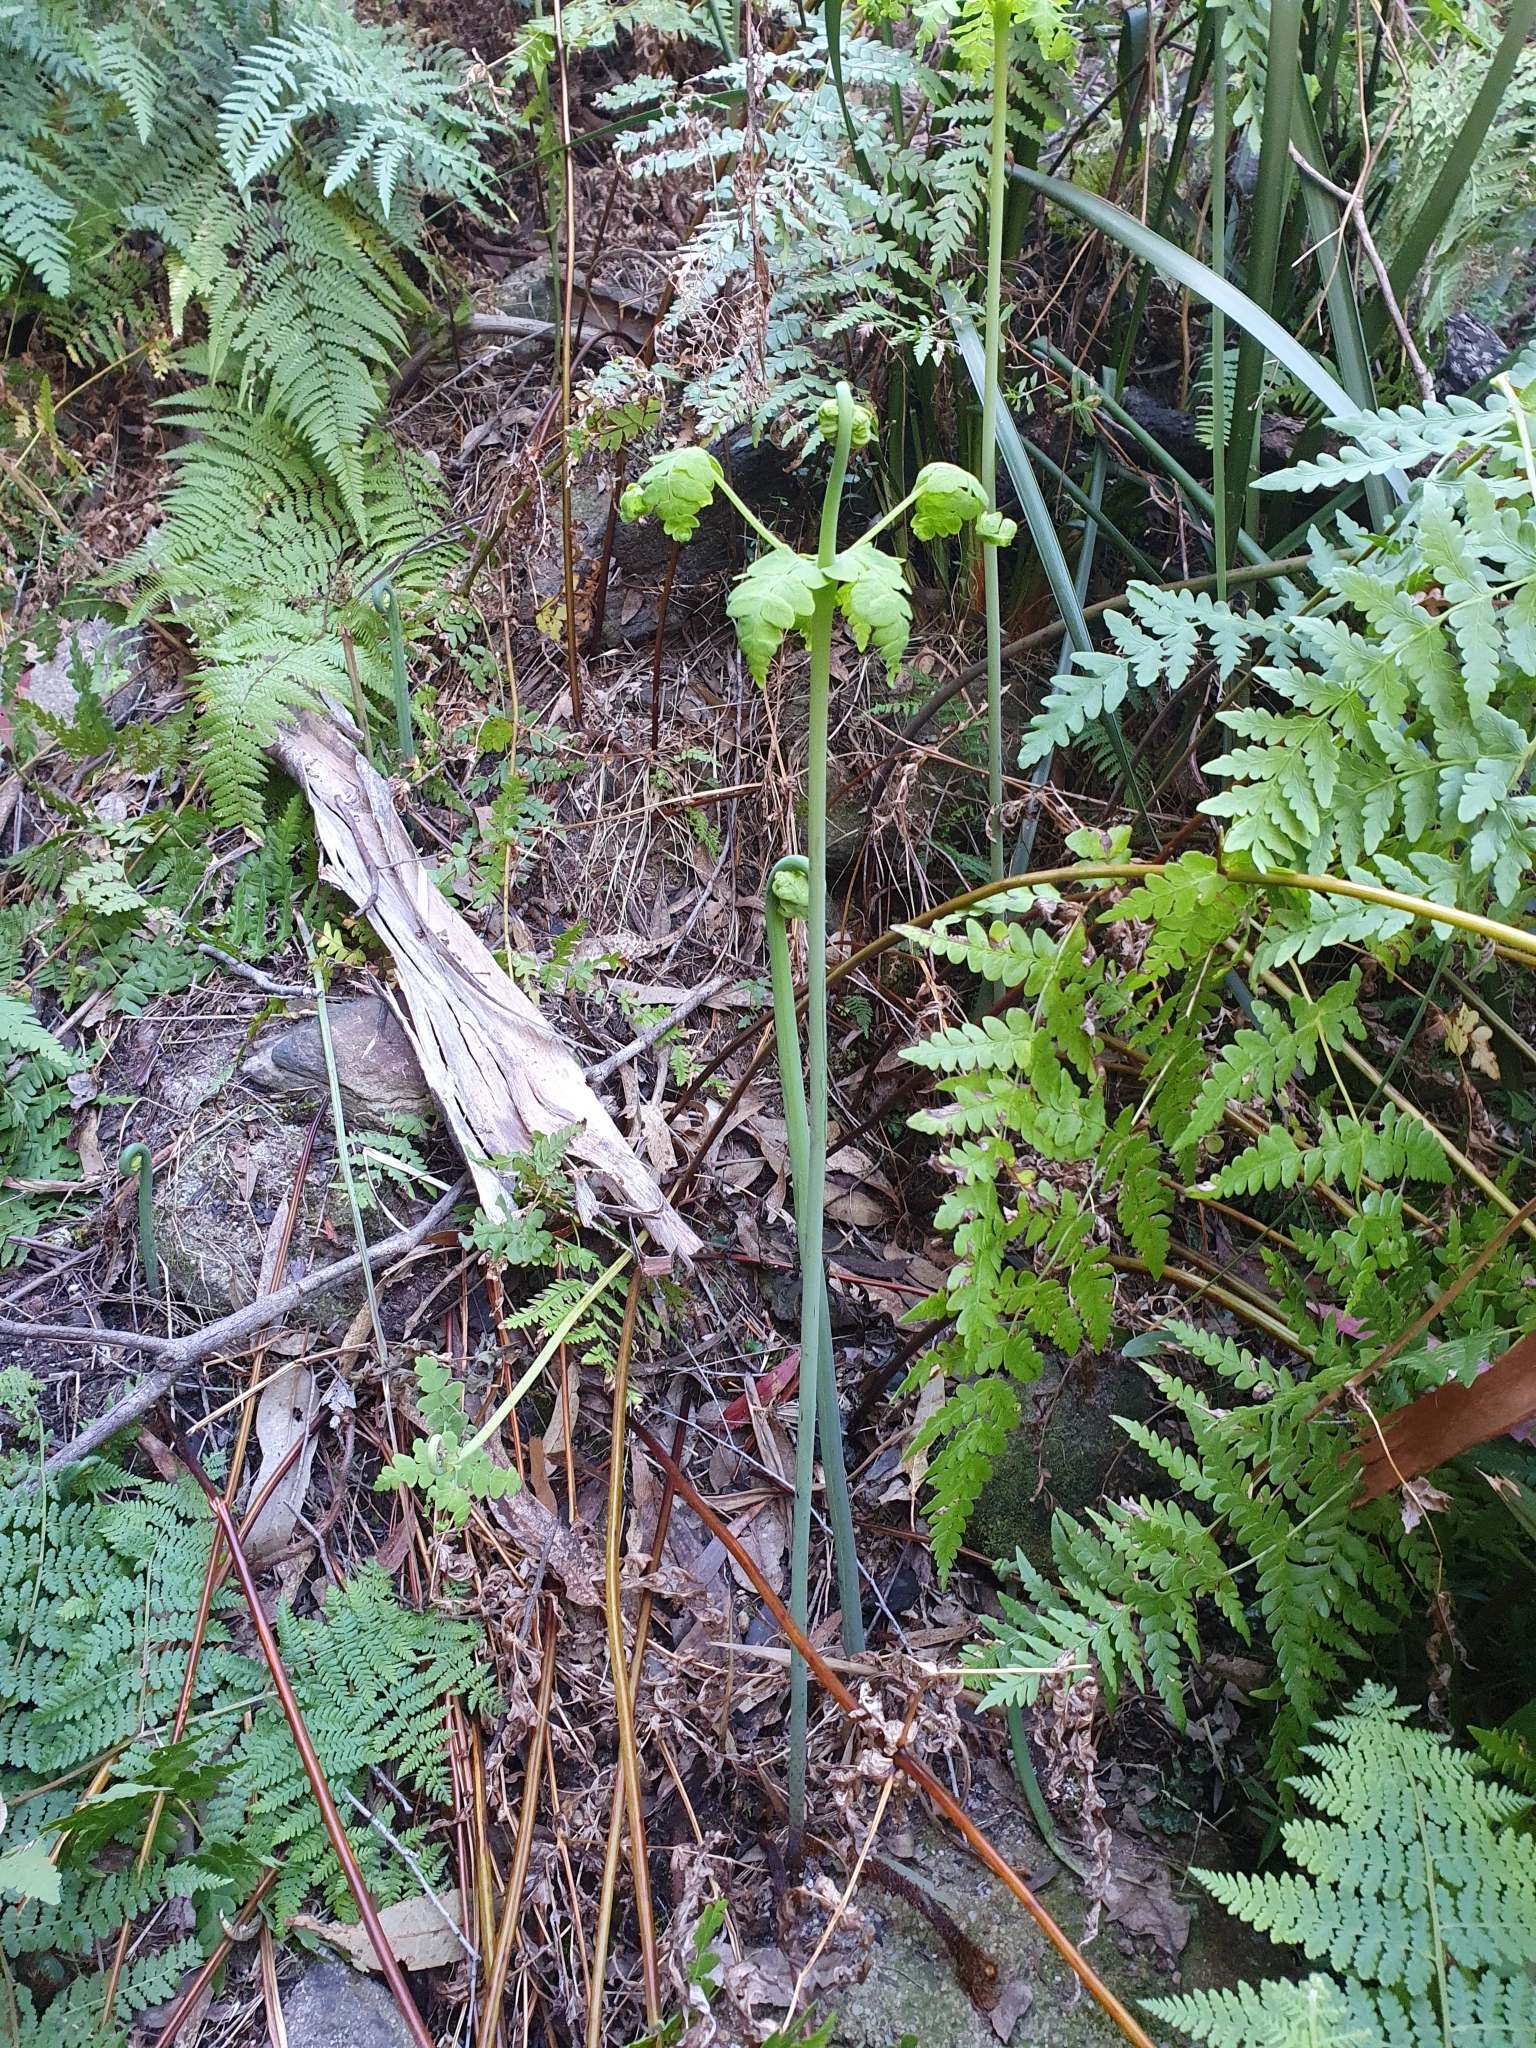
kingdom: Plantae
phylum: Tracheophyta
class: Polypodiopsida
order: Polypodiales
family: Dennstaedtiaceae
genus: Histiopteris
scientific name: Histiopteris incisa
